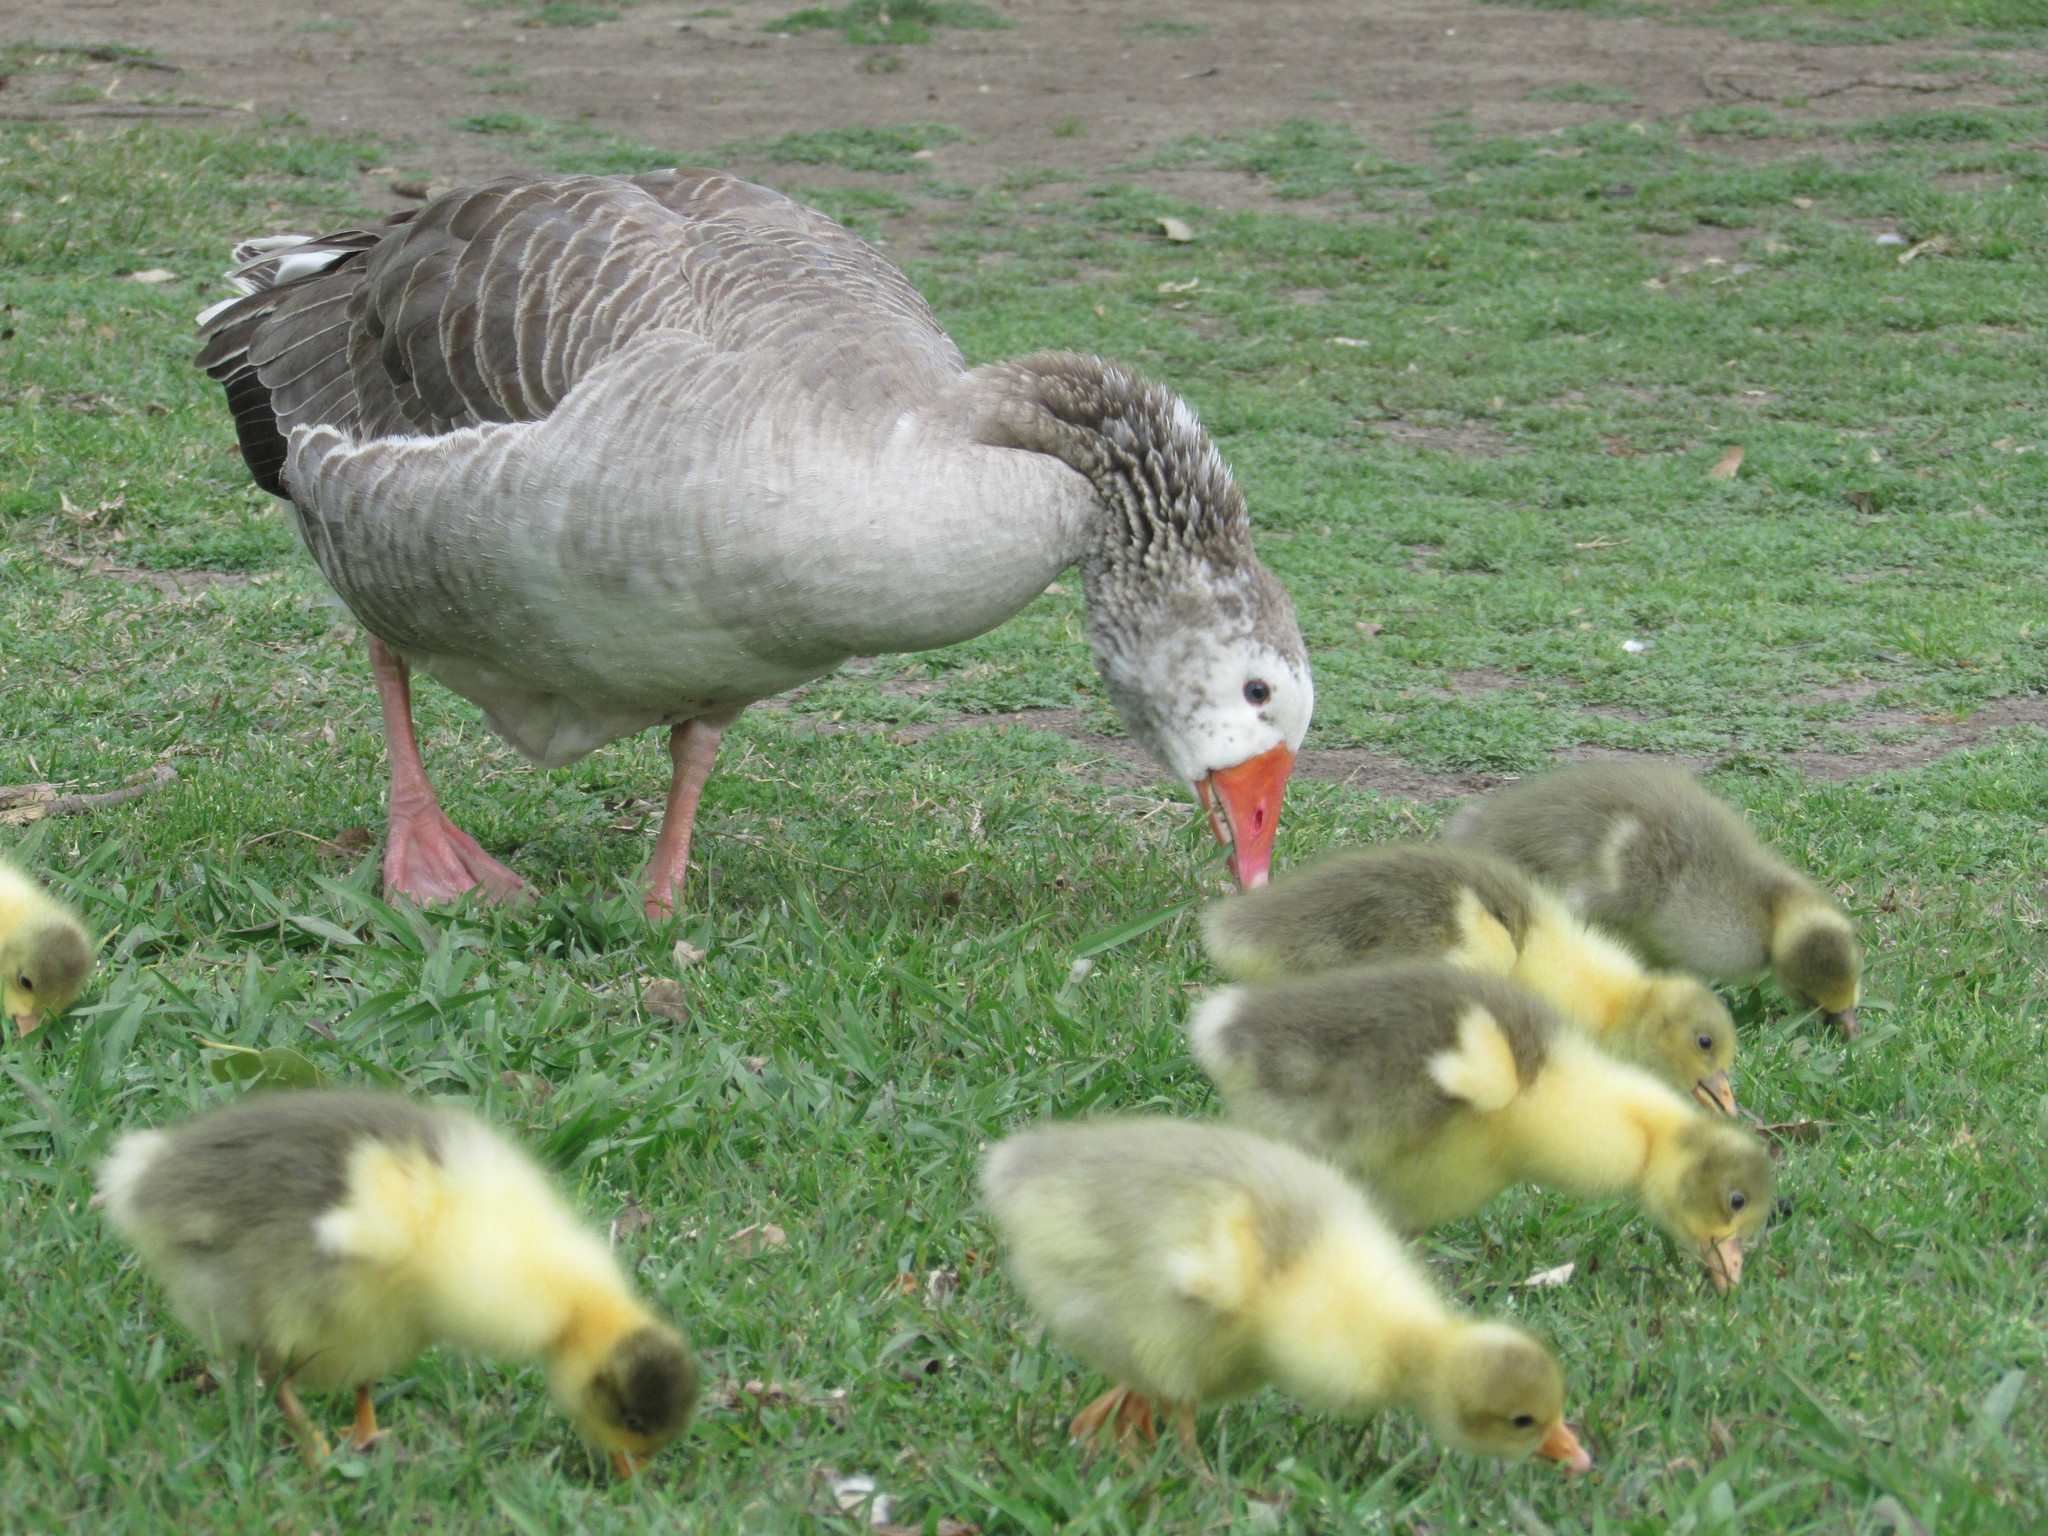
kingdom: Animalia
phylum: Chordata
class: Aves
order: Anseriformes
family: Anatidae
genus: Anser
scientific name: Anser anser
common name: Greylag goose
